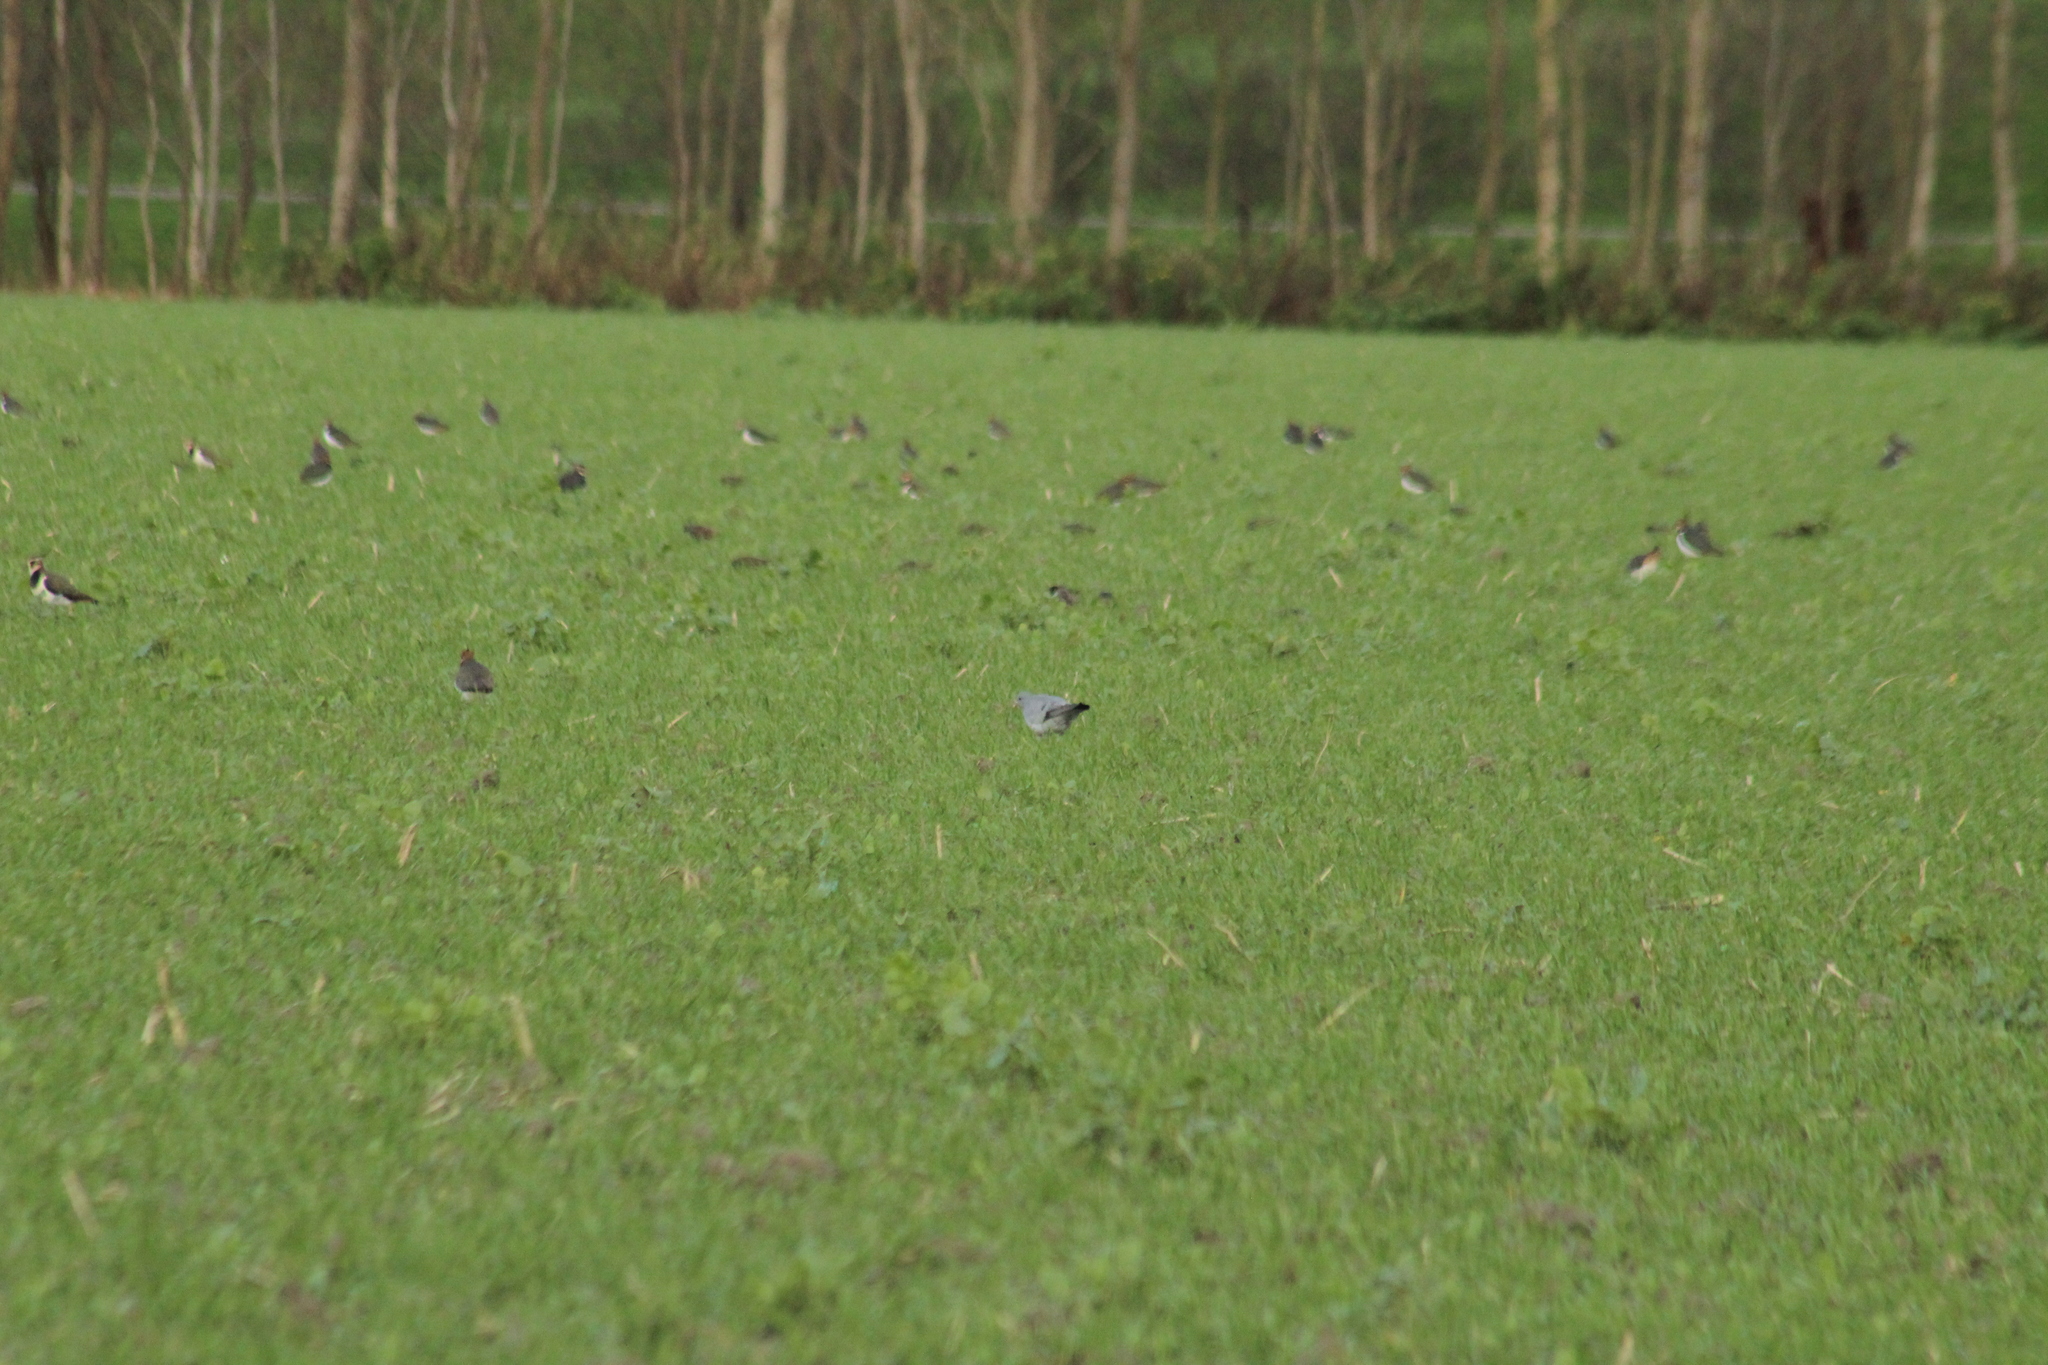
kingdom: Animalia
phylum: Chordata
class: Aves
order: Columbiformes
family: Columbidae
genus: Columba
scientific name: Columba oenas
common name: Stock dove
